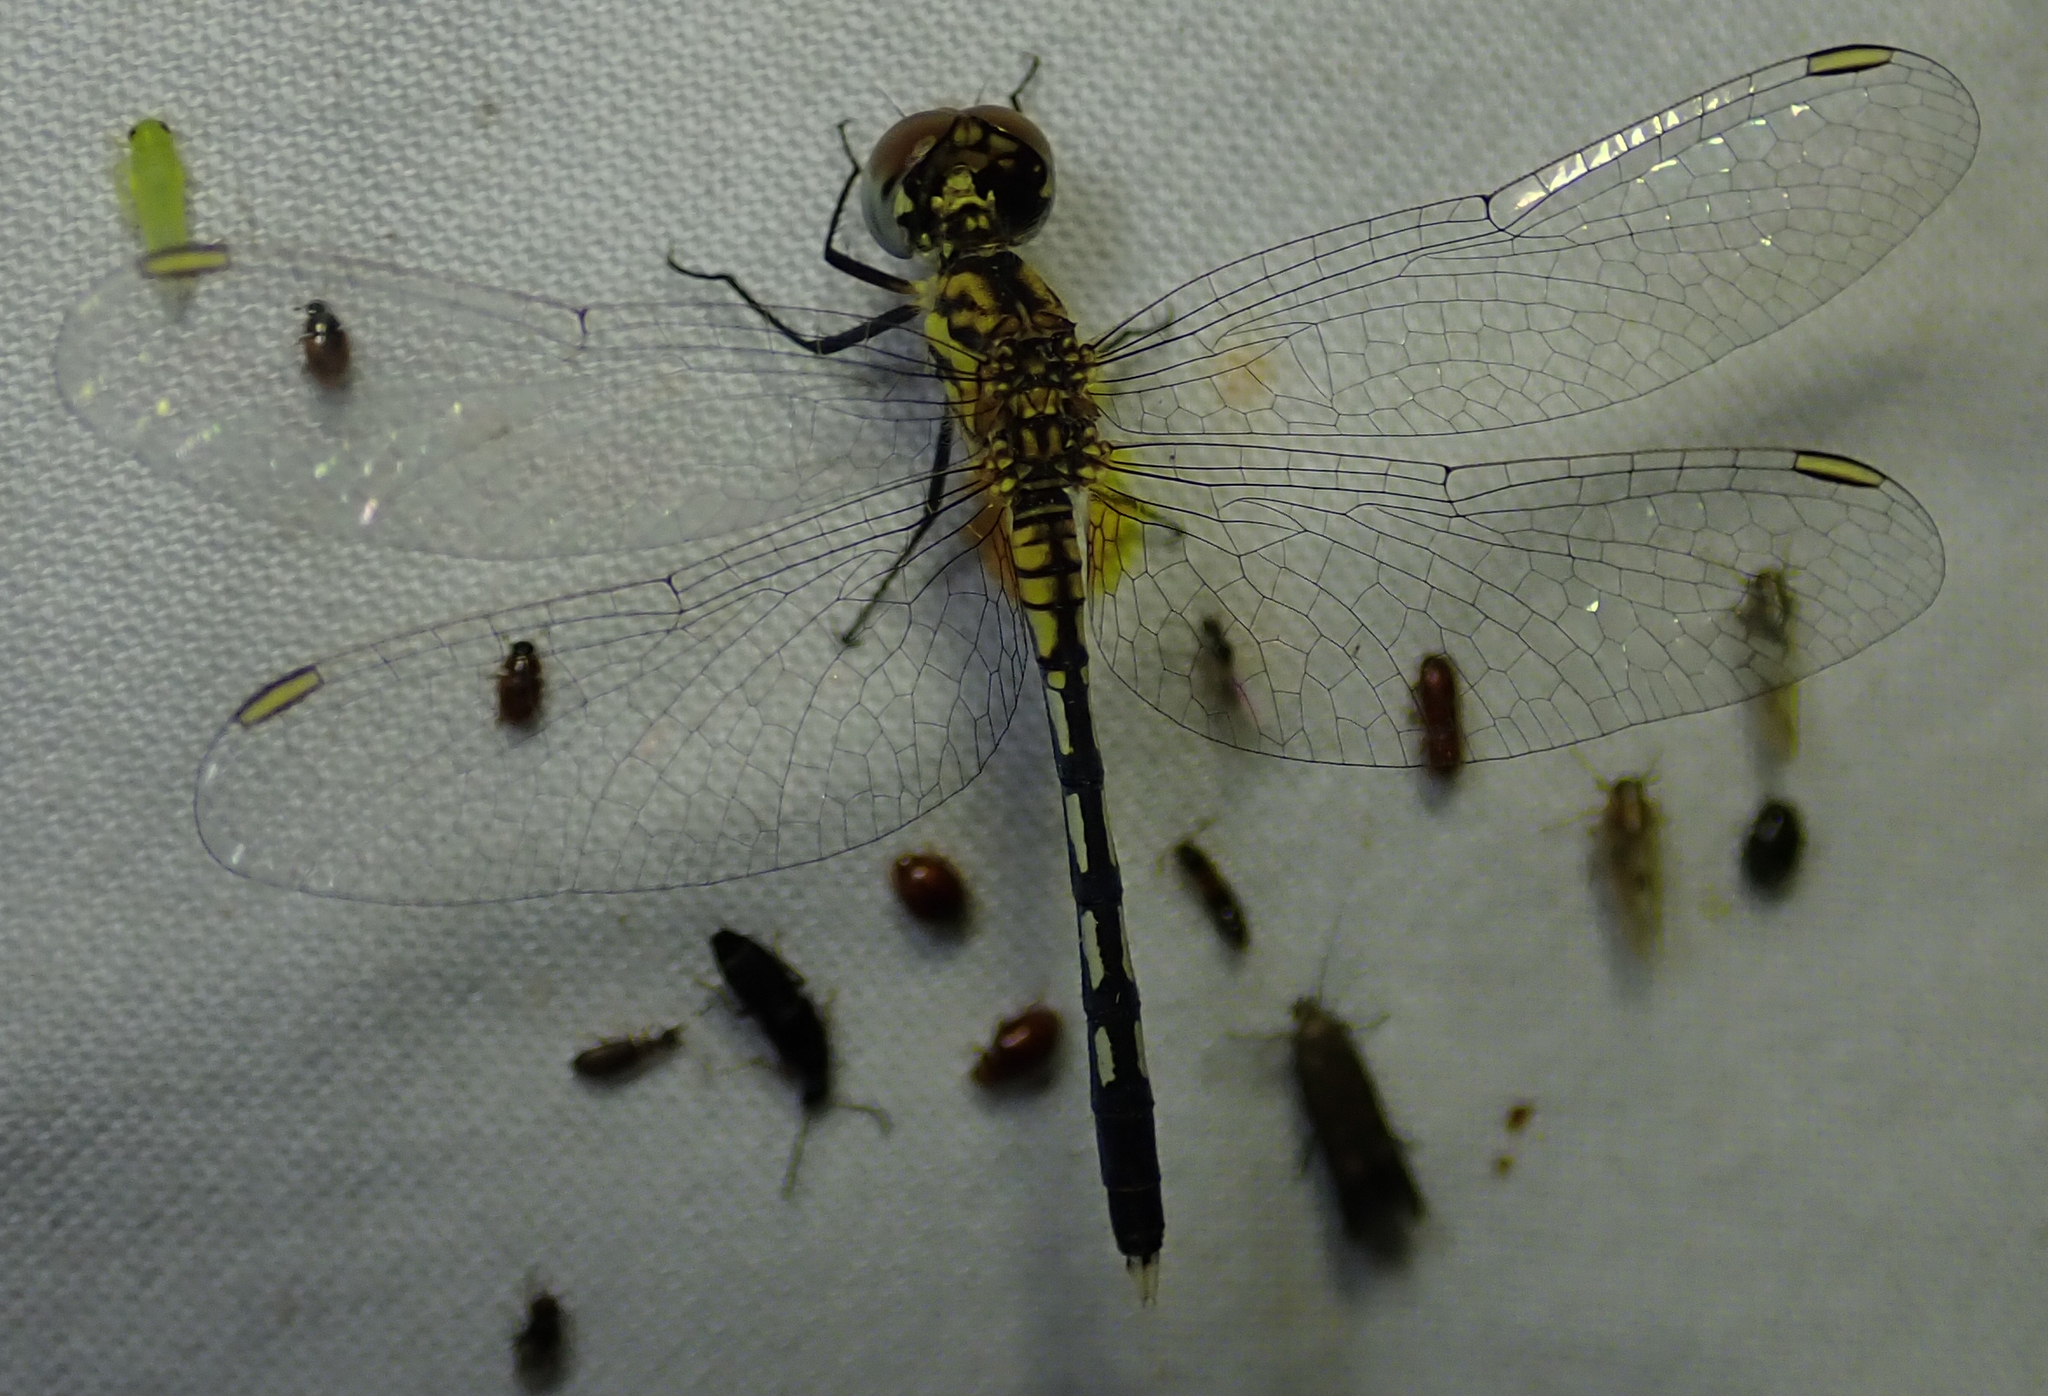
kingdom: Animalia
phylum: Arthropoda
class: Insecta
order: Odonata
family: Libellulidae
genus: Diplacodes
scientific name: Diplacodes lefebvrii
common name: Black percher
